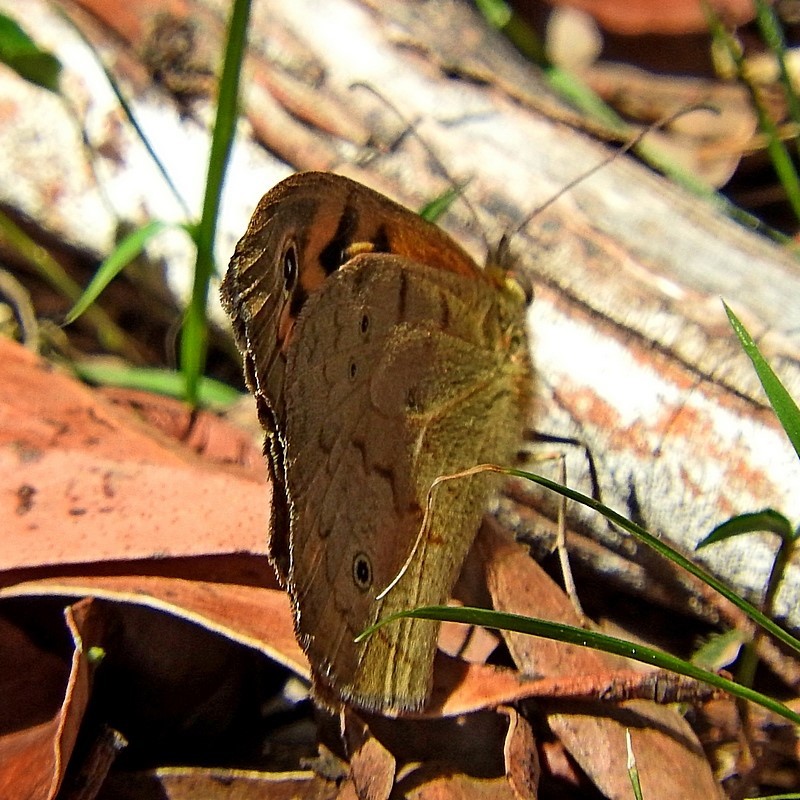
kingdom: Animalia
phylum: Arthropoda
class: Insecta
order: Lepidoptera
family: Nymphalidae
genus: Heteronympha
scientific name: Heteronympha merope
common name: Common brown
